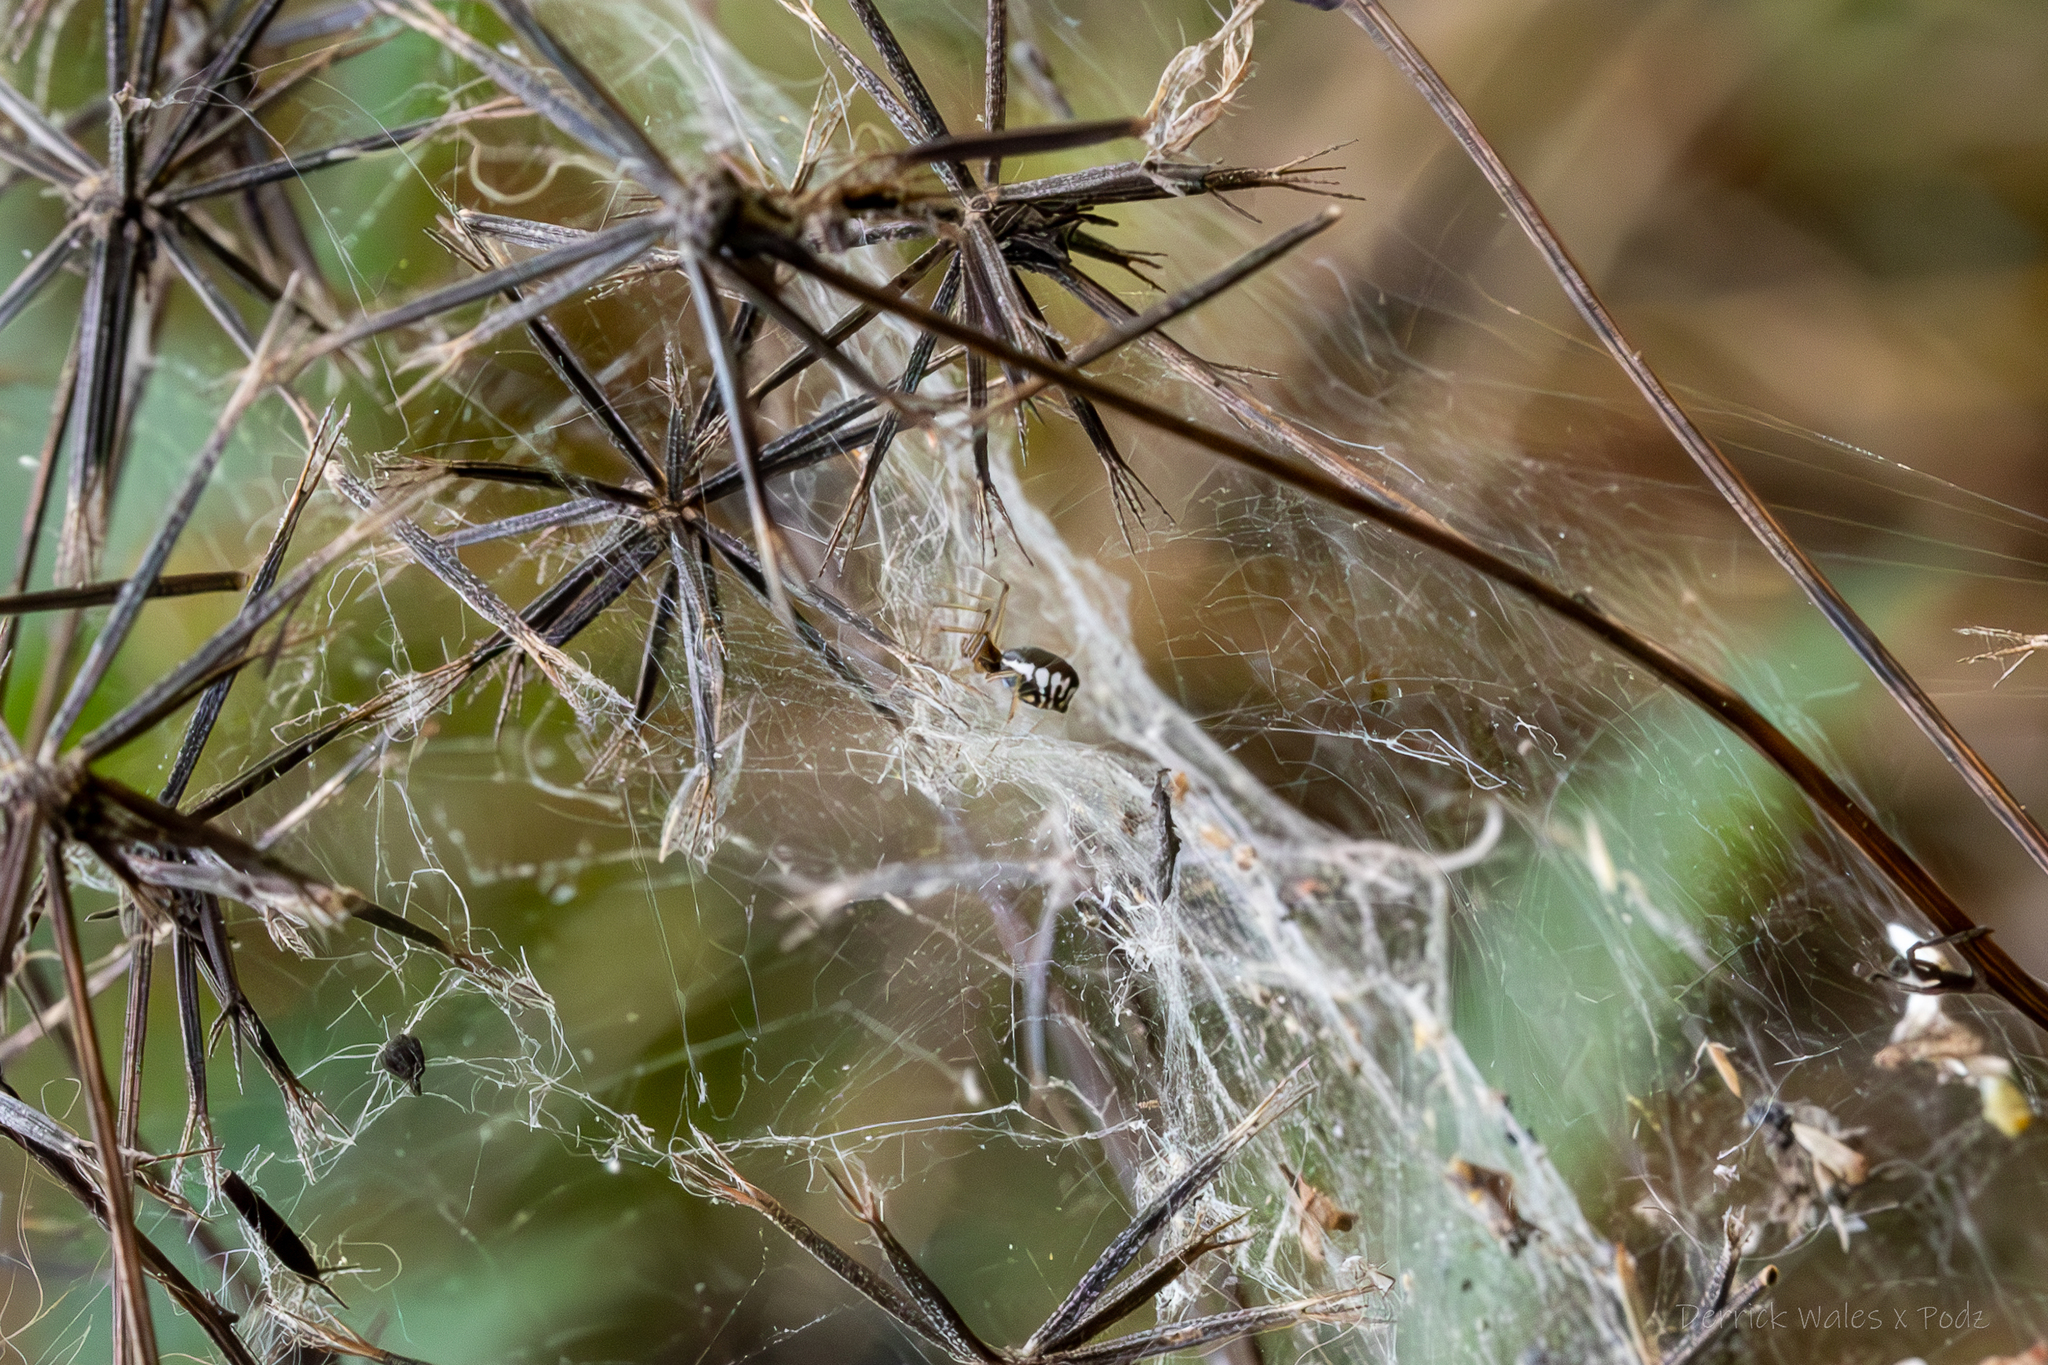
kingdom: Animalia
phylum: Arthropoda
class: Arachnida
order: Araneae
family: Linyphiidae
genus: Frontinella
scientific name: Frontinella pyramitela
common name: Bowl-and-doily spider
